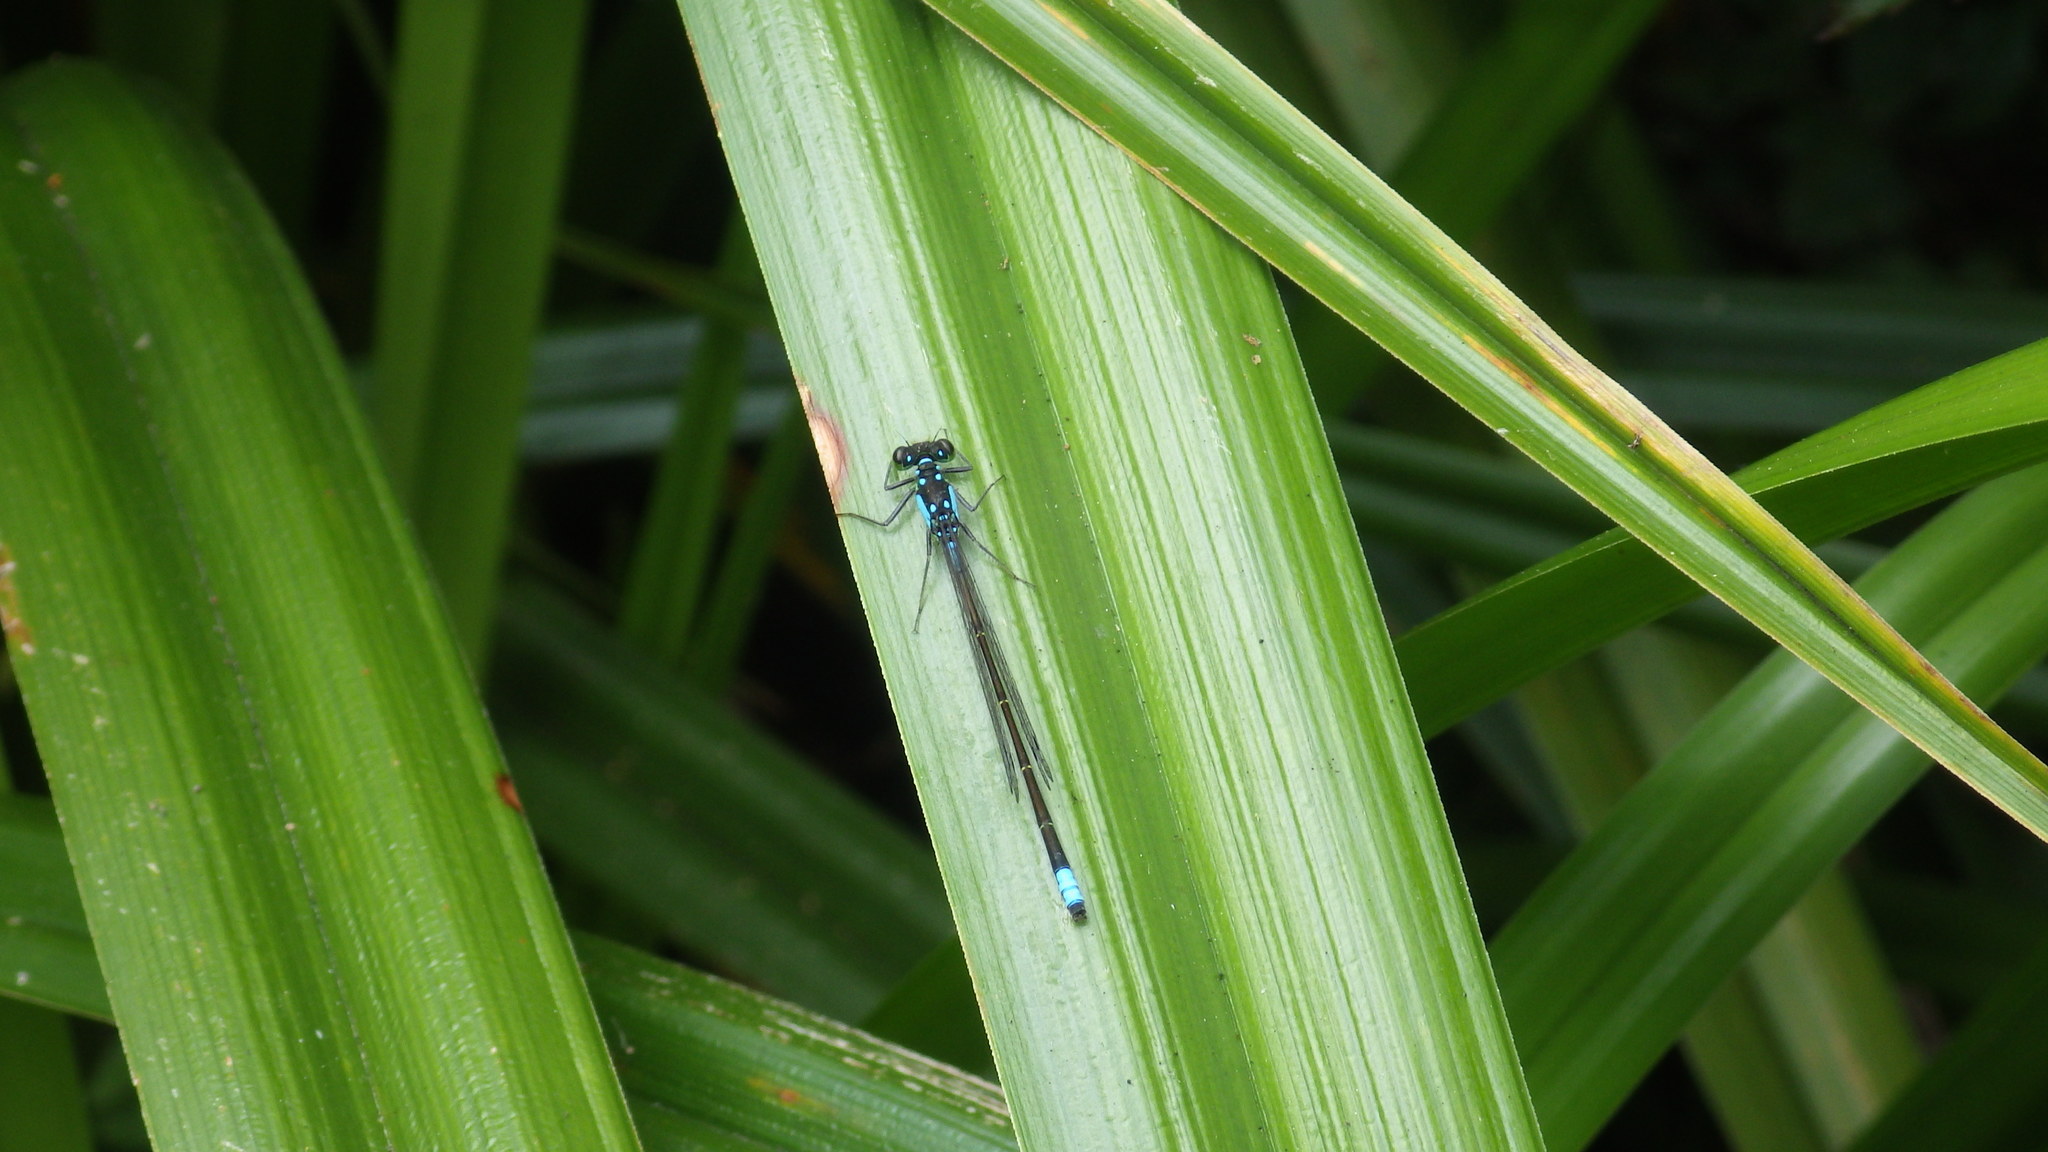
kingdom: Animalia
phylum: Arthropoda
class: Insecta
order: Odonata
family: Coenagrionidae
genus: Ischnura
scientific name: Ischnura cervula
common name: Pacific forktail
